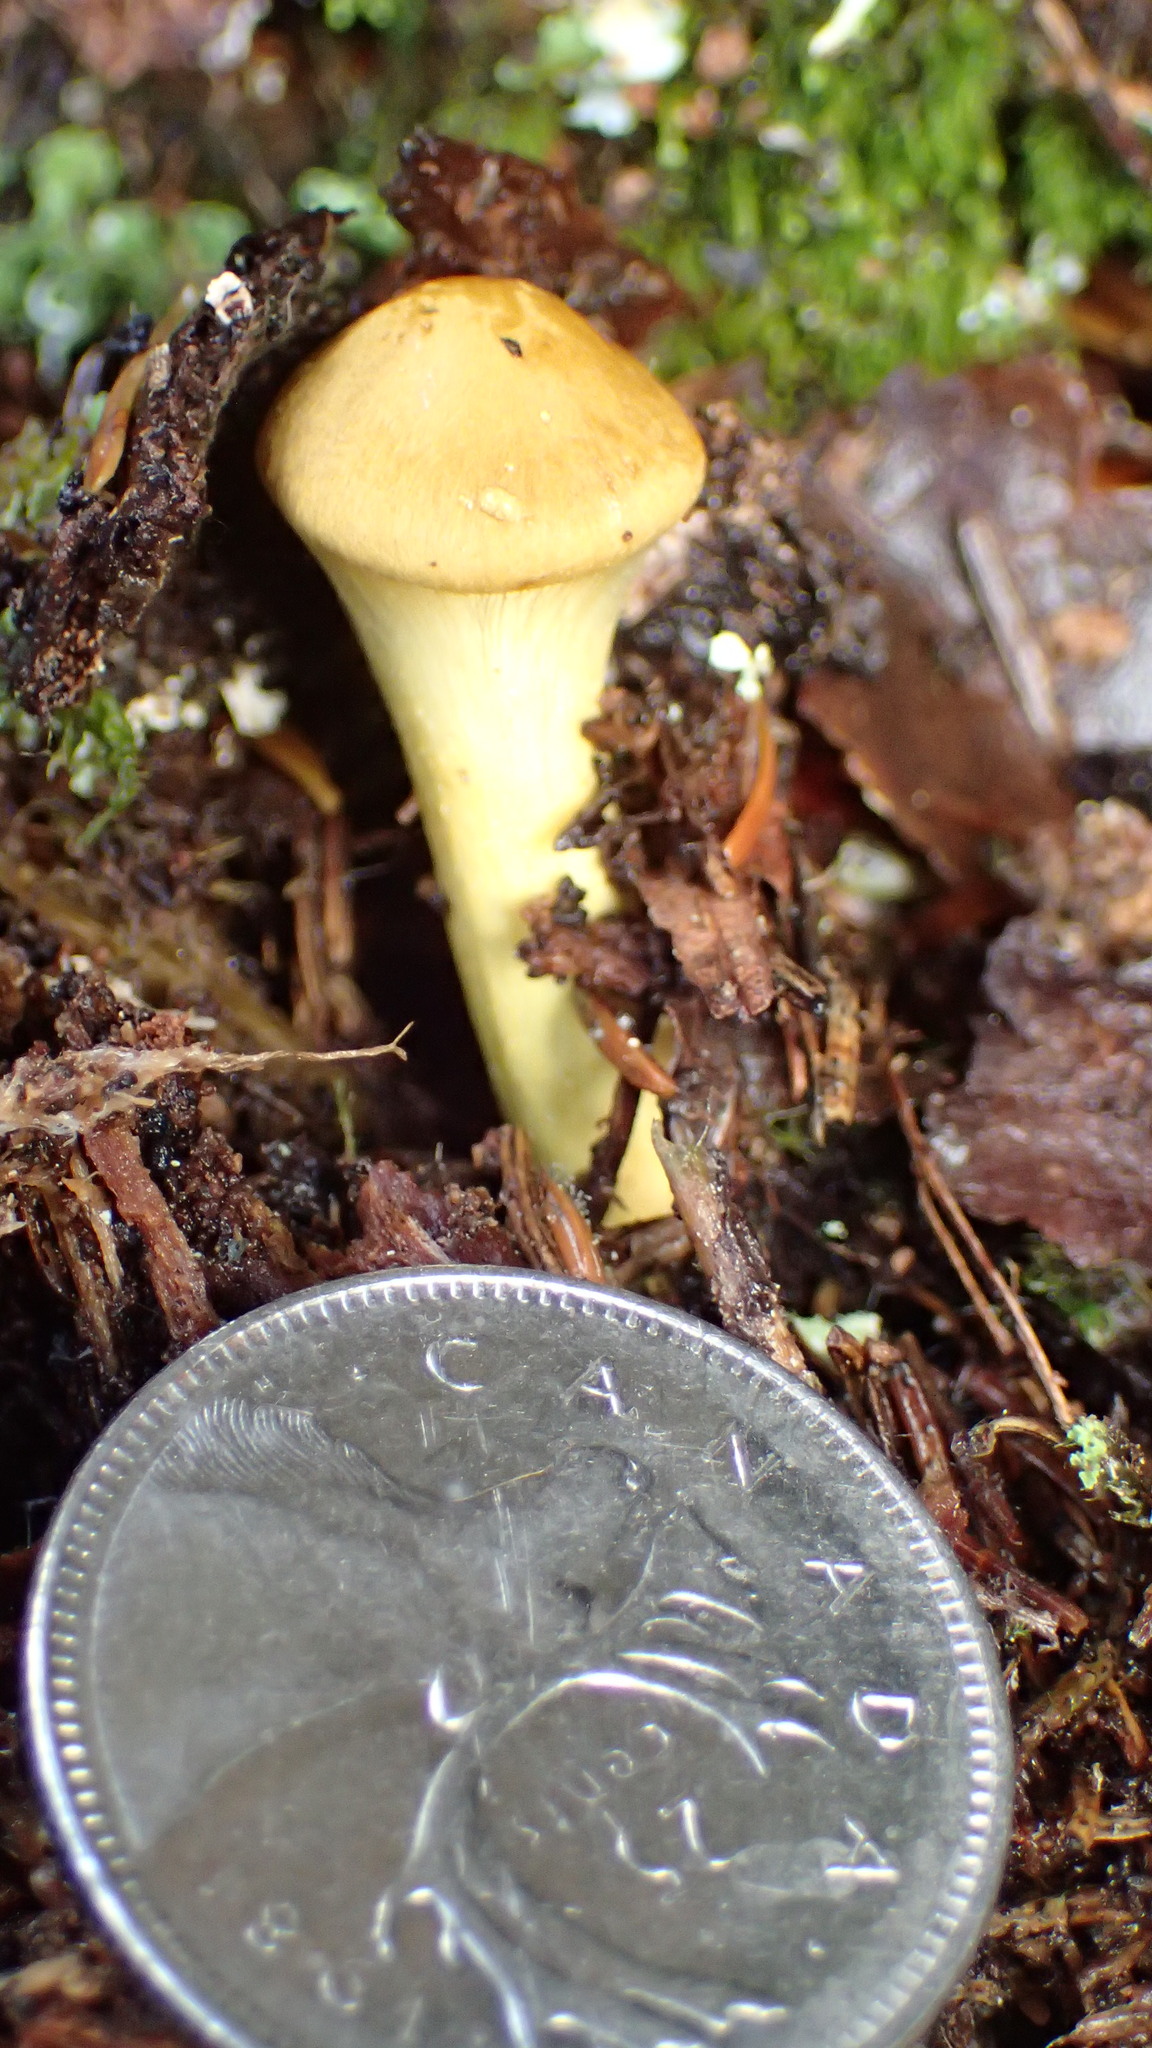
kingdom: Fungi
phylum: Basidiomycota
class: Agaricomycetes
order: Agaricales
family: Cortinariaceae
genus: Cortinarius
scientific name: Cortinarius semisanguineus
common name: Surprise webcap
